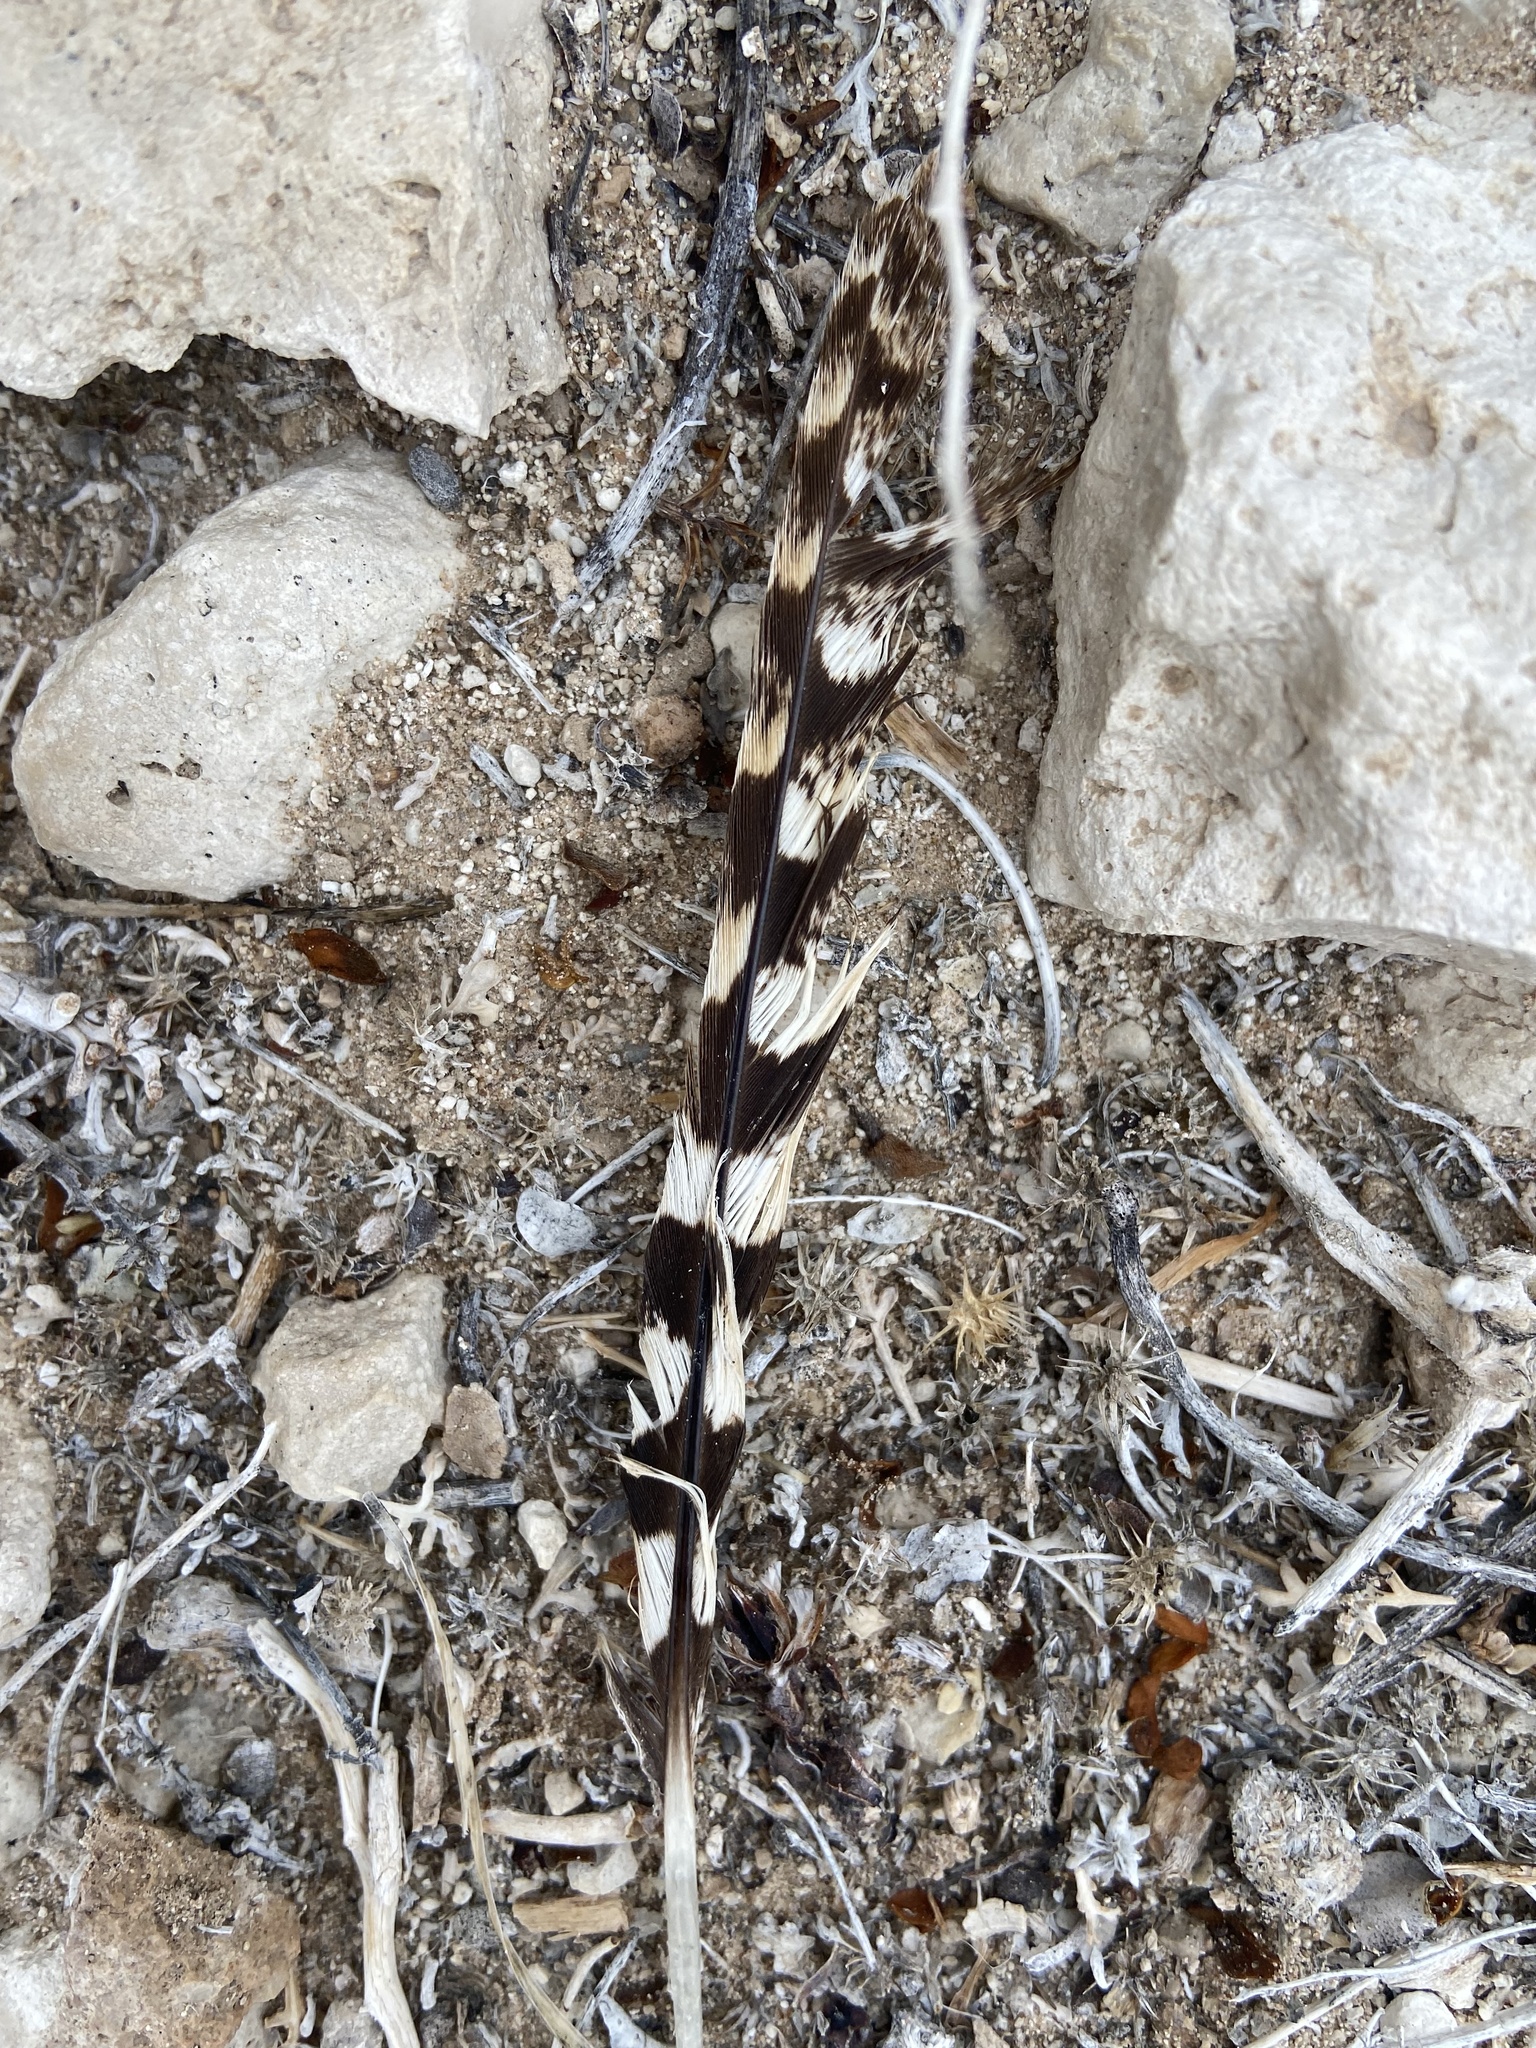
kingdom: Animalia
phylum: Chordata
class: Aves
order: Caprimulgiformes
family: Caprimulgidae
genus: Chordeiles
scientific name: Chordeiles acutipennis
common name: Lesser nighthawk
